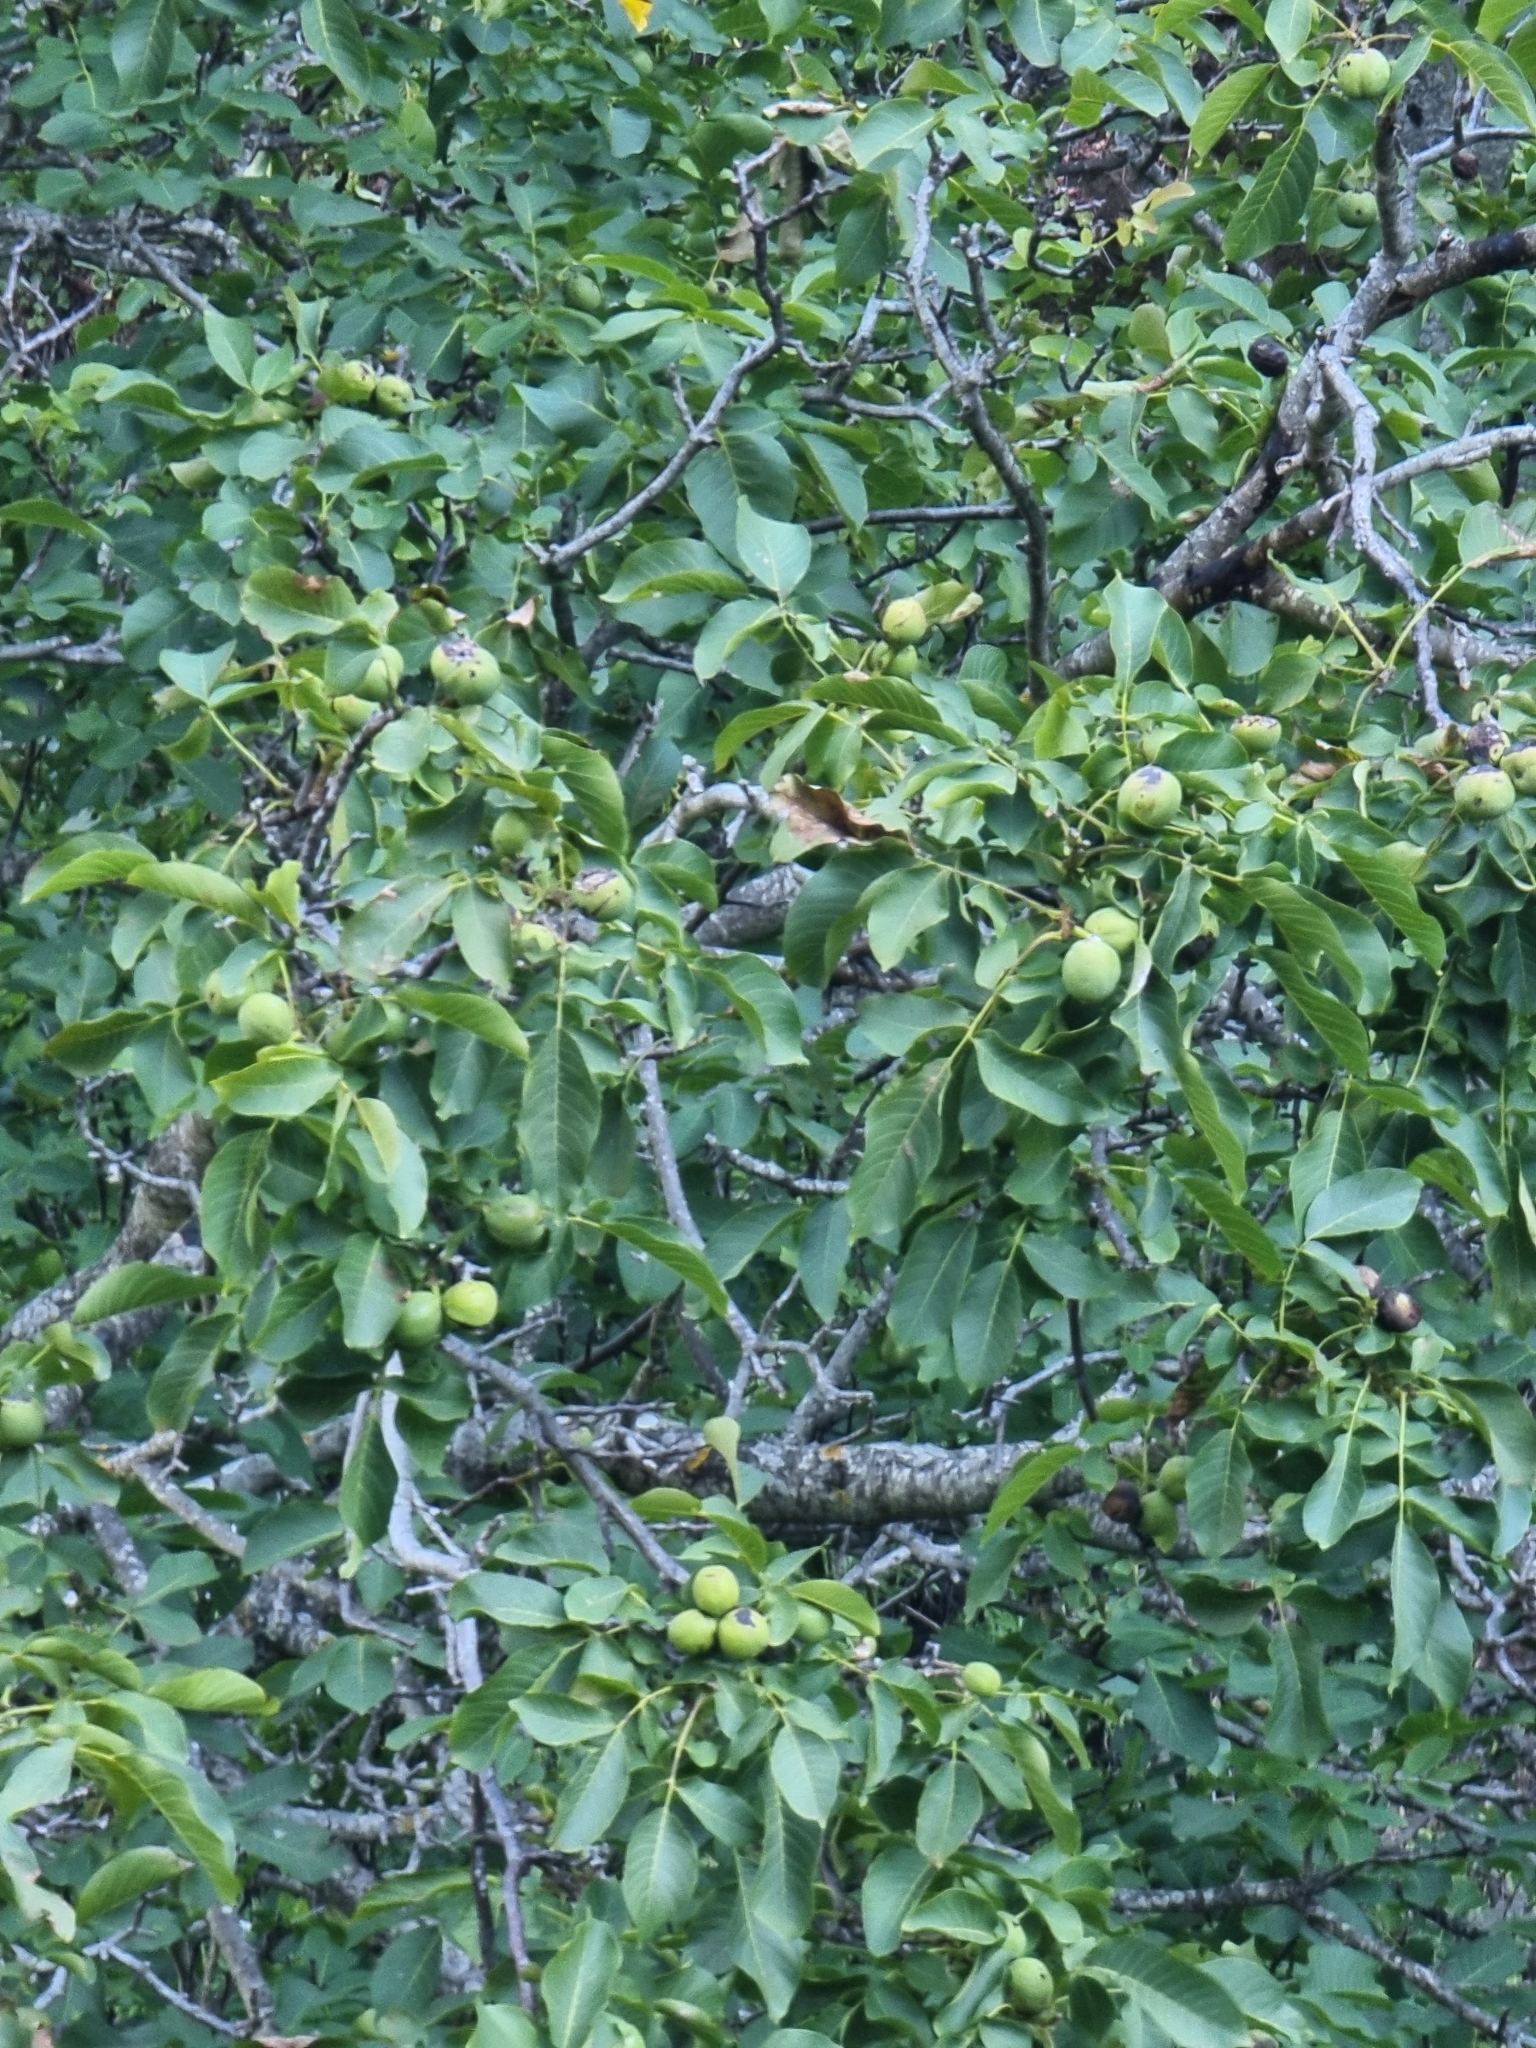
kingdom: Plantae
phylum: Tracheophyta
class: Magnoliopsida
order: Fagales
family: Juglandaceae
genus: Juglans
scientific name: Juglans regia
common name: Walnut
